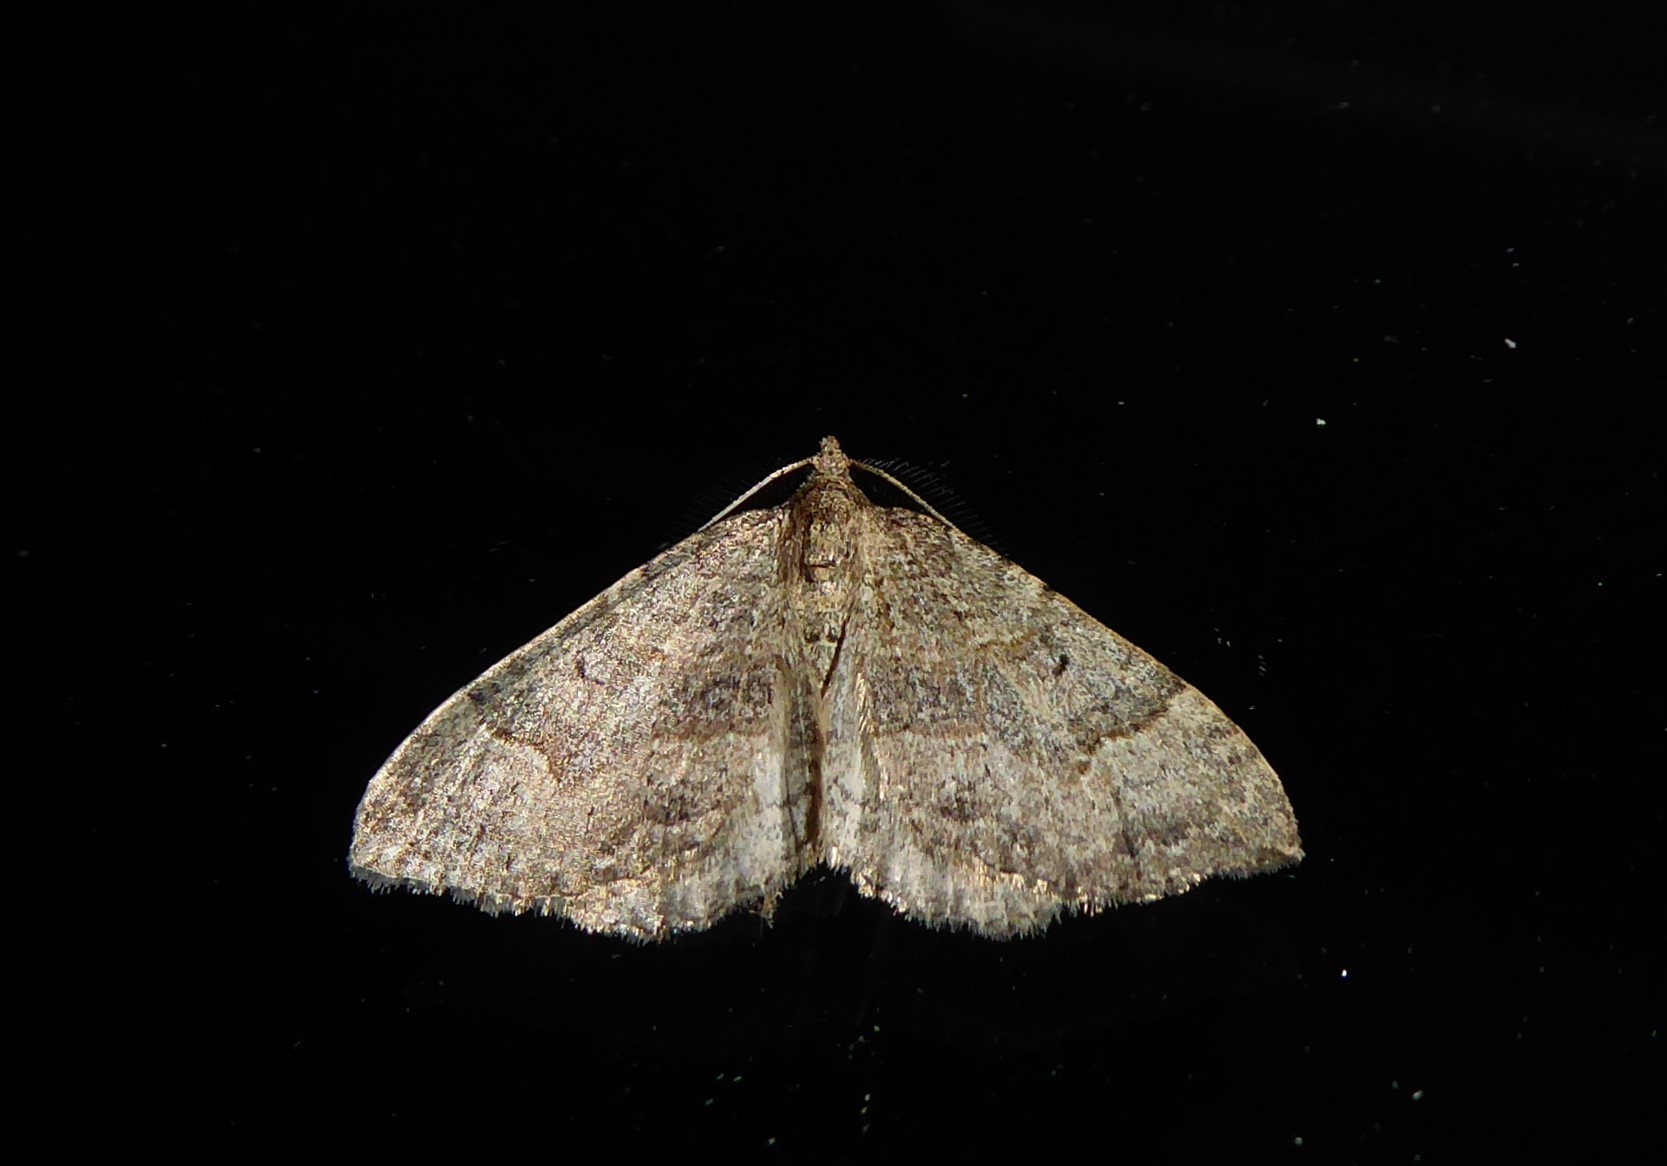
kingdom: Animalia
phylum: Arthropoda
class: Insecta
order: Lepidoptera
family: Geometridae
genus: Epyaxa
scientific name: Epyaxa rosearia
